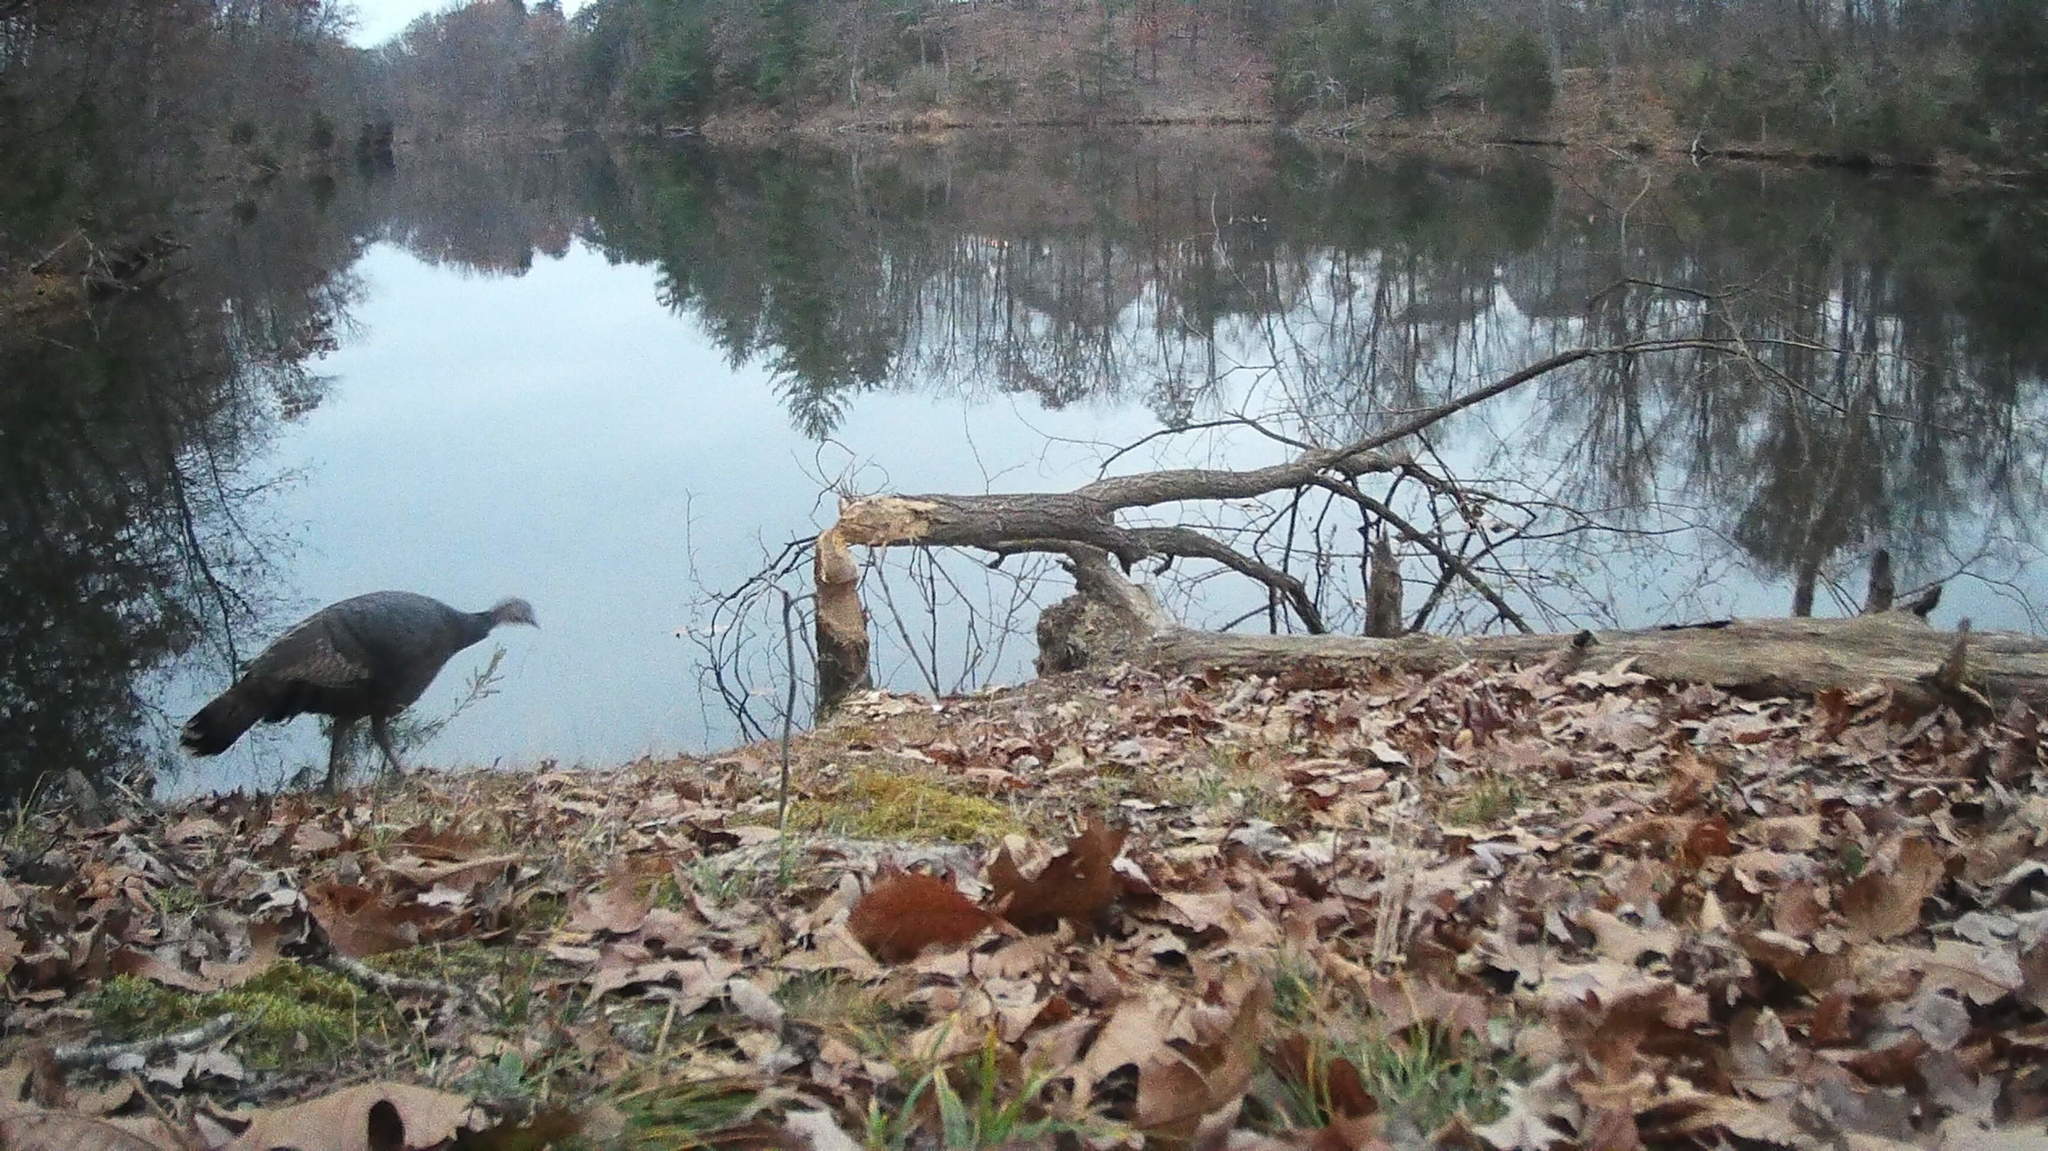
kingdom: Animalia
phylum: Chordata
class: Aves
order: Galliformes
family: Phasianidae
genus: Meleagris
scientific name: Meleagris gallopavo
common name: Wild turkey
